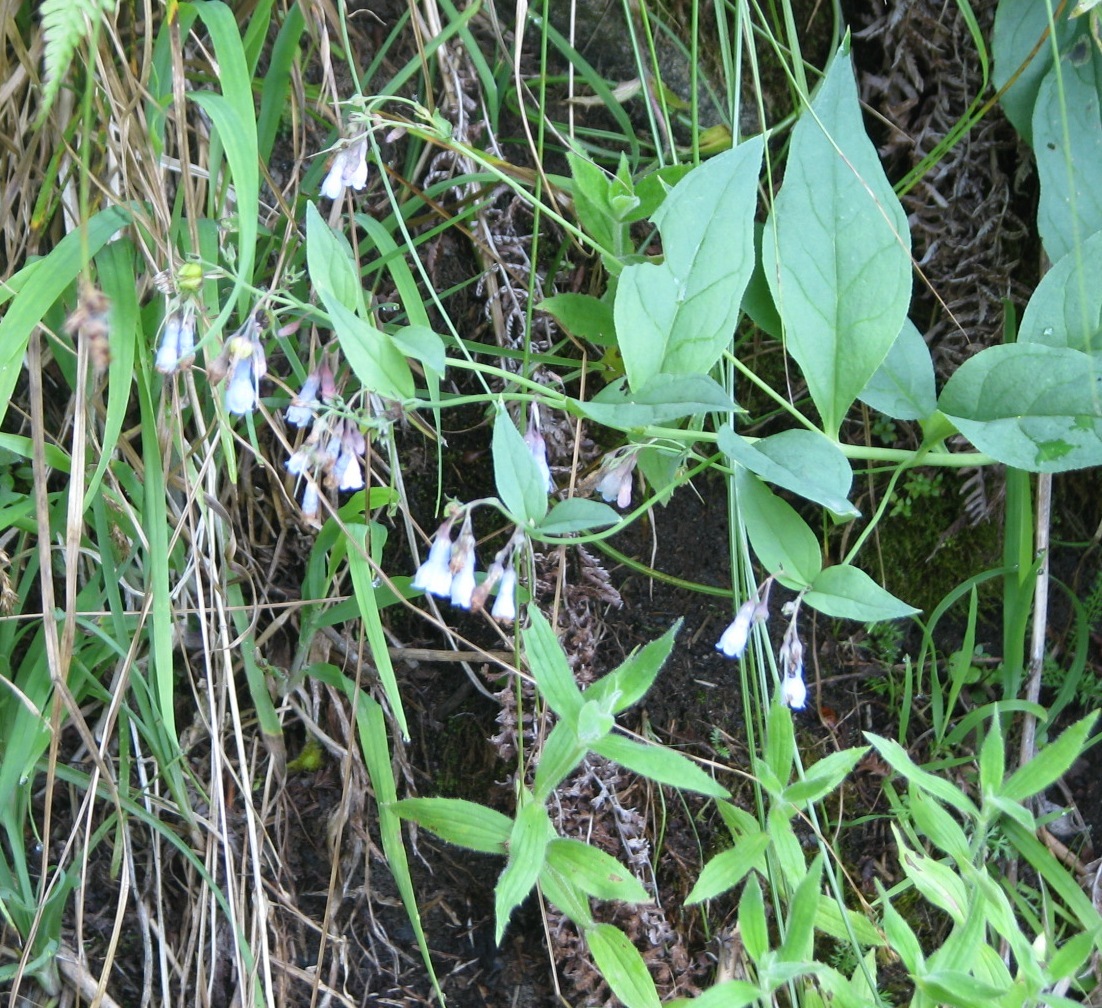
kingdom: Plantae
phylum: Tracheophyta
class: Magnoliopsida
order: Boraginales
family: Boraginaceae
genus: Mertensia
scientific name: Mertensia paniculata
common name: Panicled bluebells
